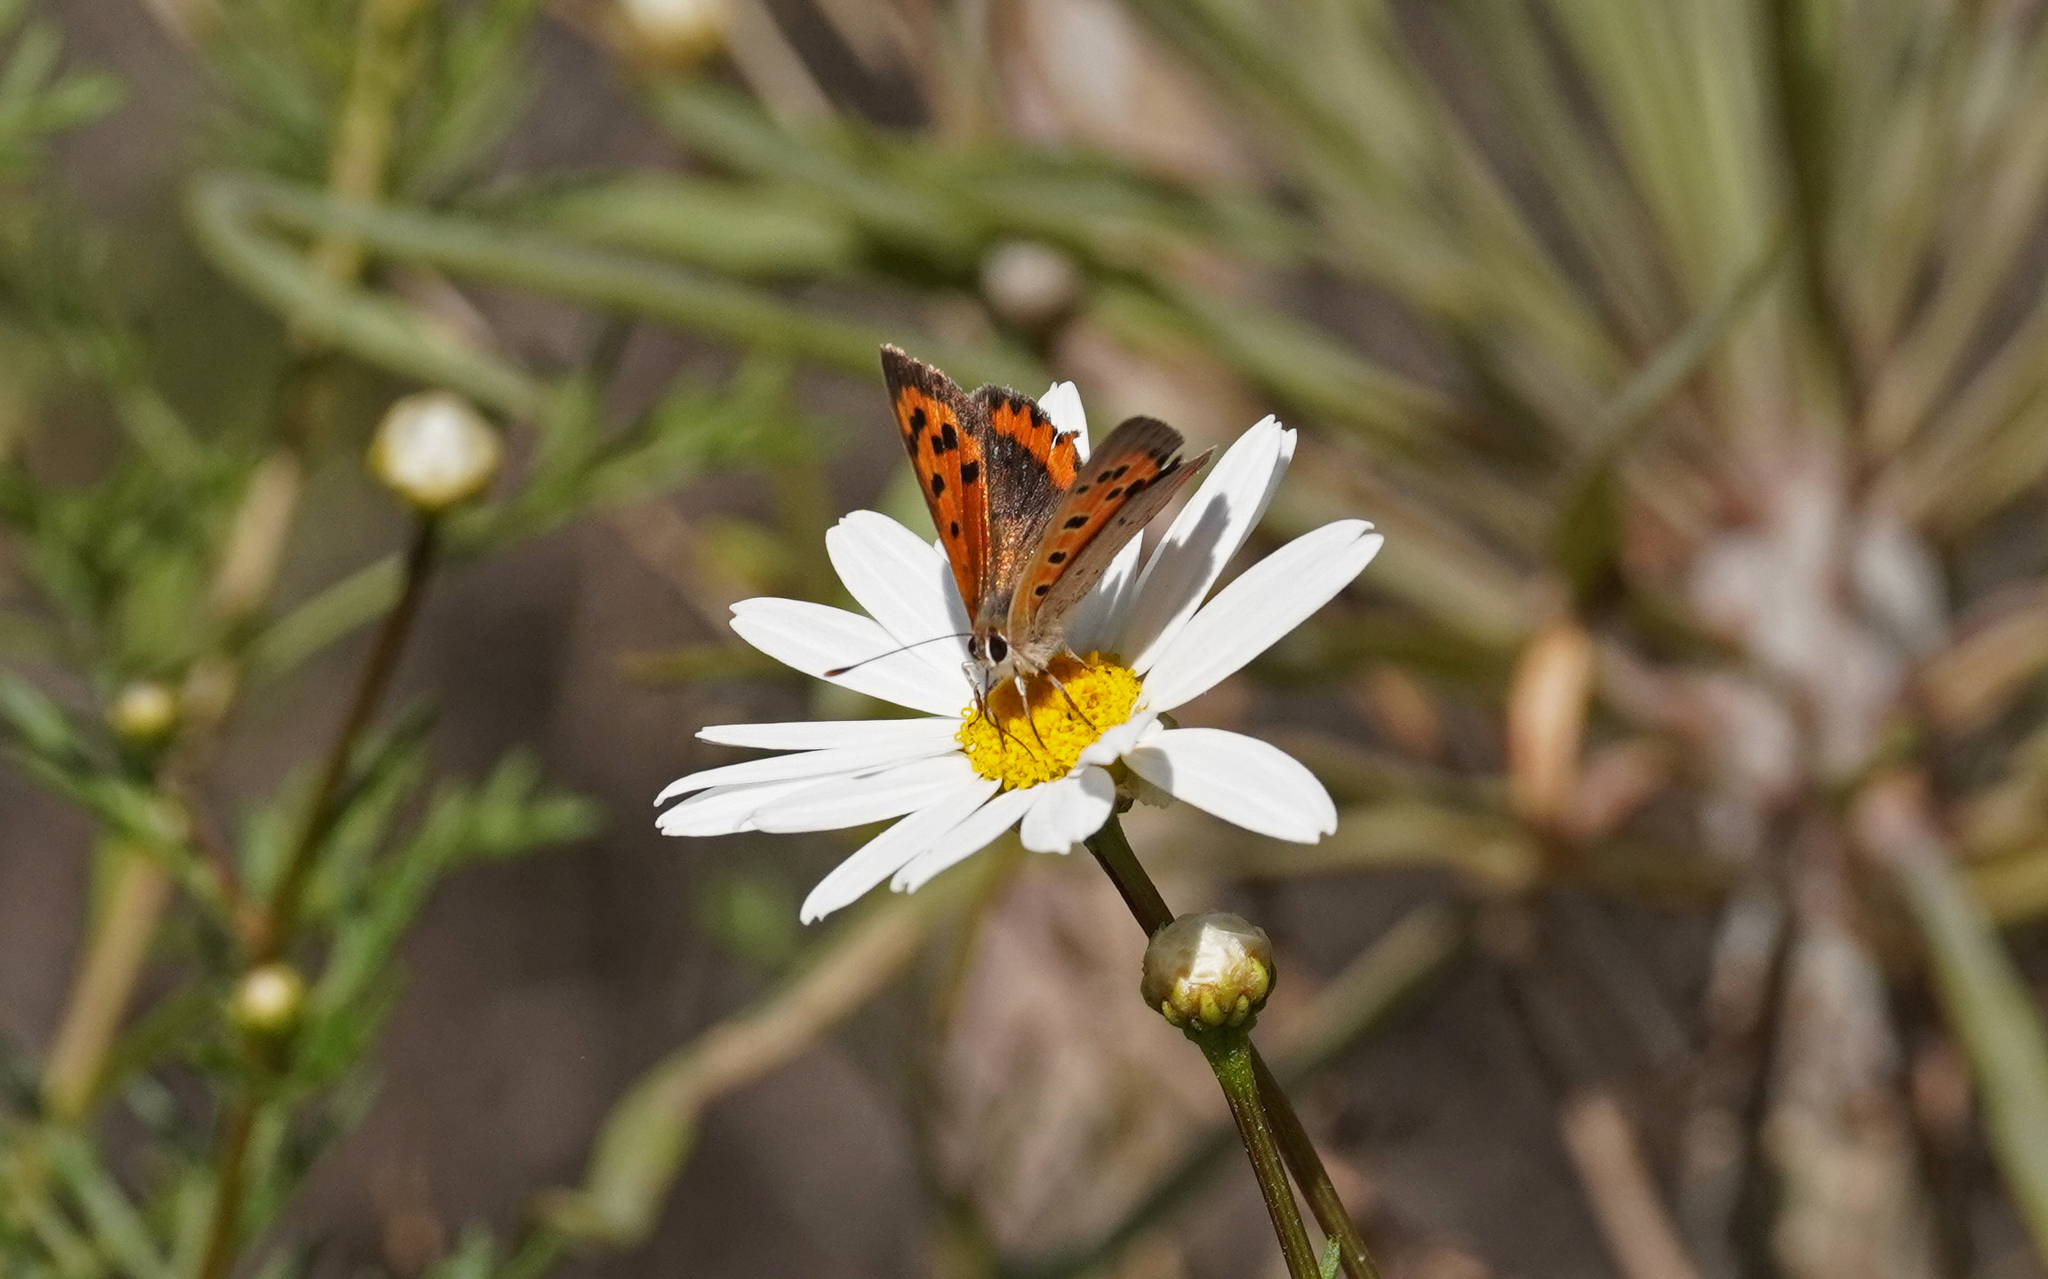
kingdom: Animalia
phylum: Arthropoda
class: Insecta
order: Lepidoptera
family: Lycaenidae
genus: Lycaena
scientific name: Lycaena phlaeas
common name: Small copper
